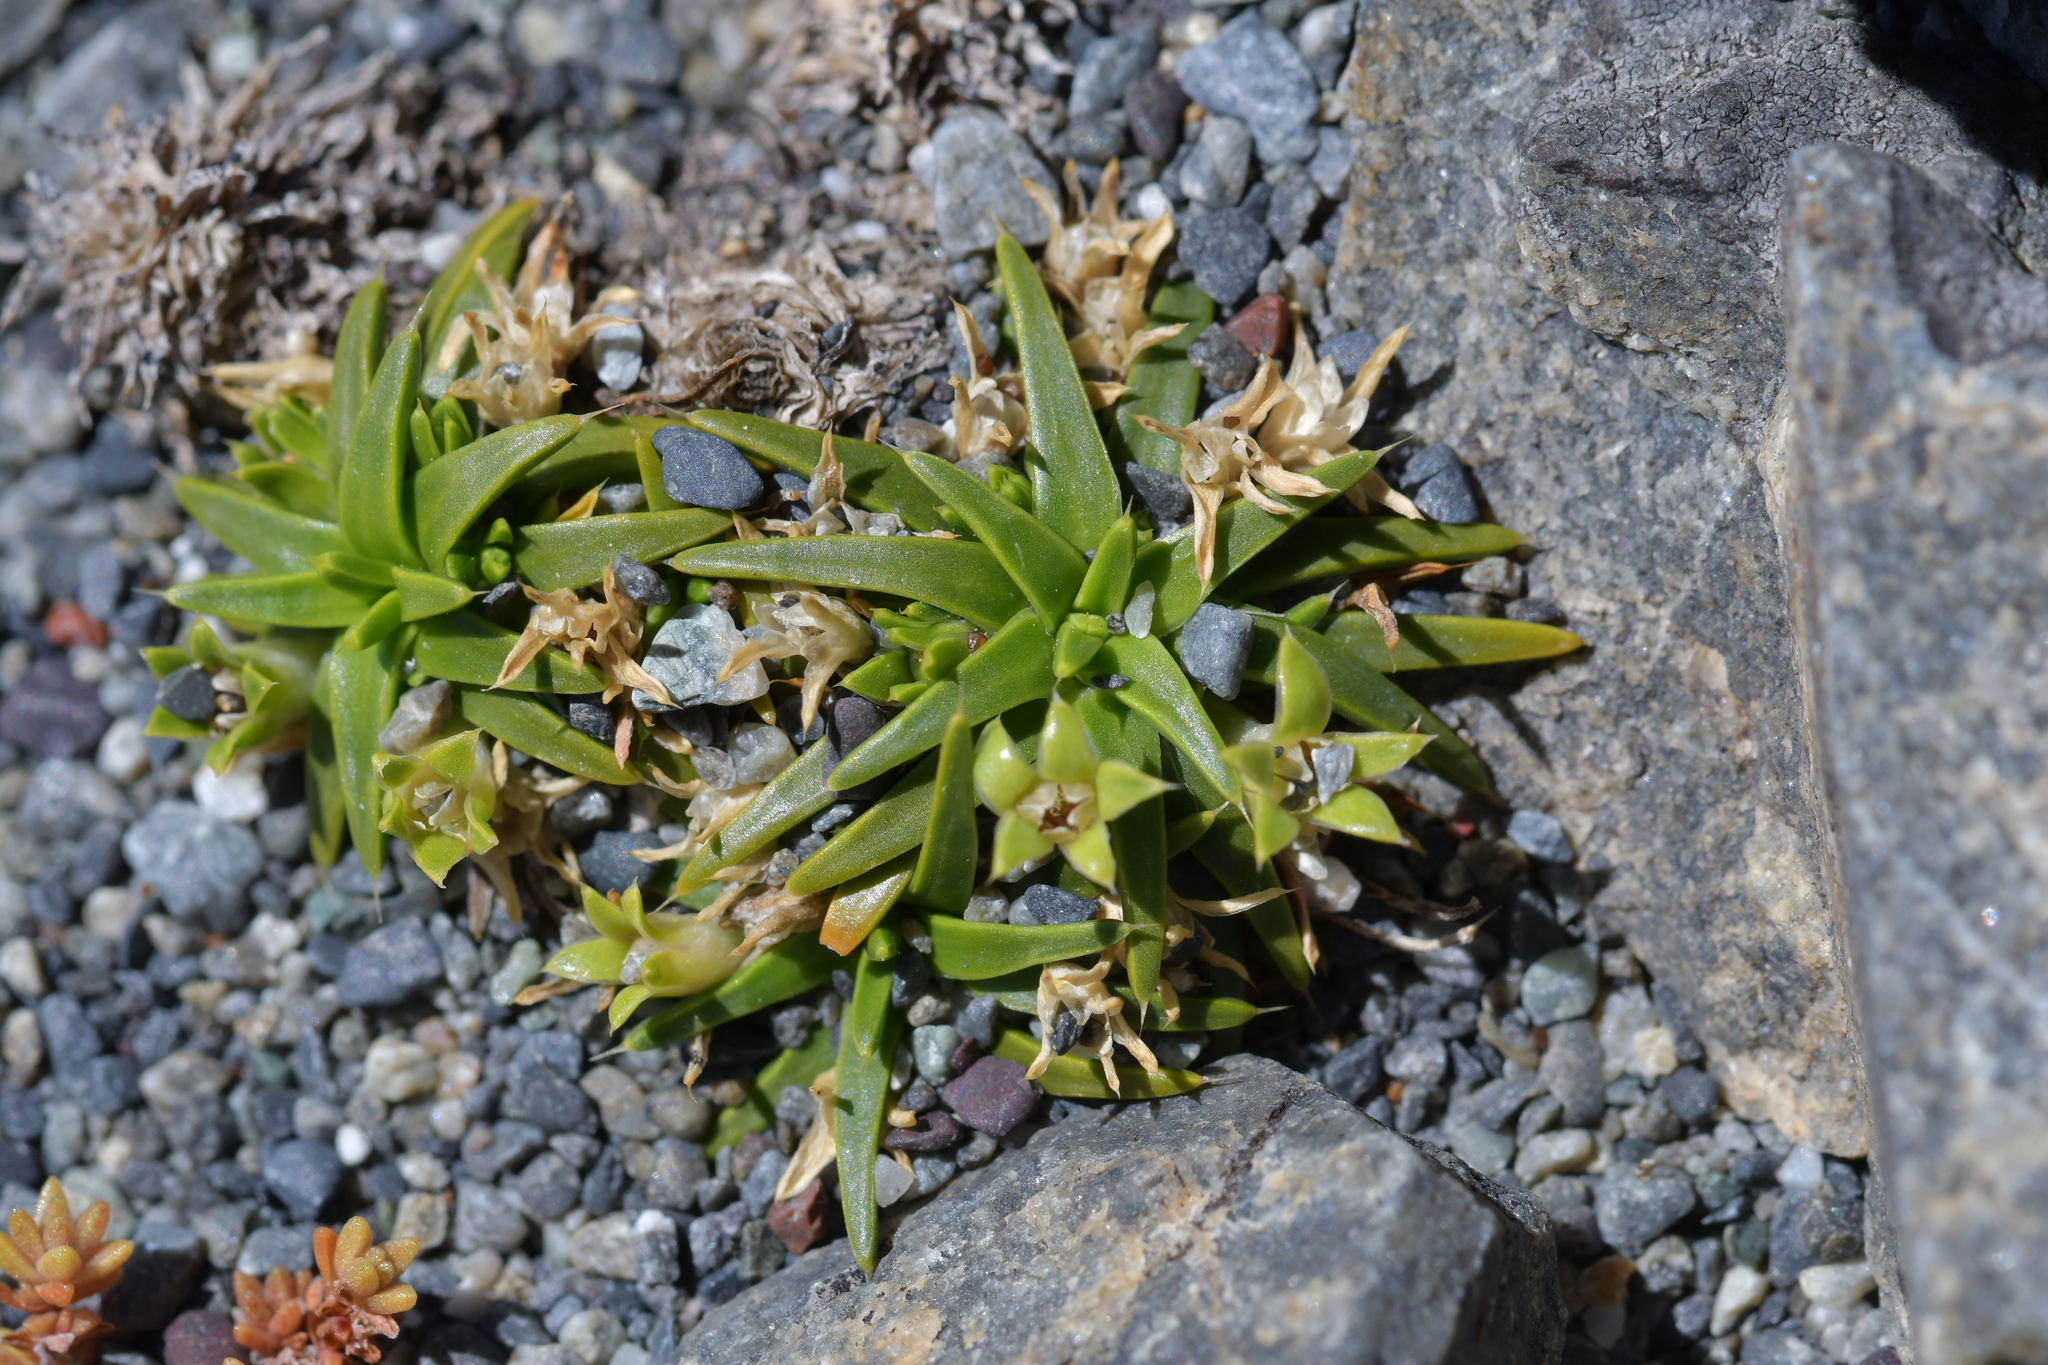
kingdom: Plantae
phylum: Tracheophyta
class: Magnoliopsida
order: Caryophyllales
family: Caryophyllaceae
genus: Colobanthus
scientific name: Colobanthus muelleri
